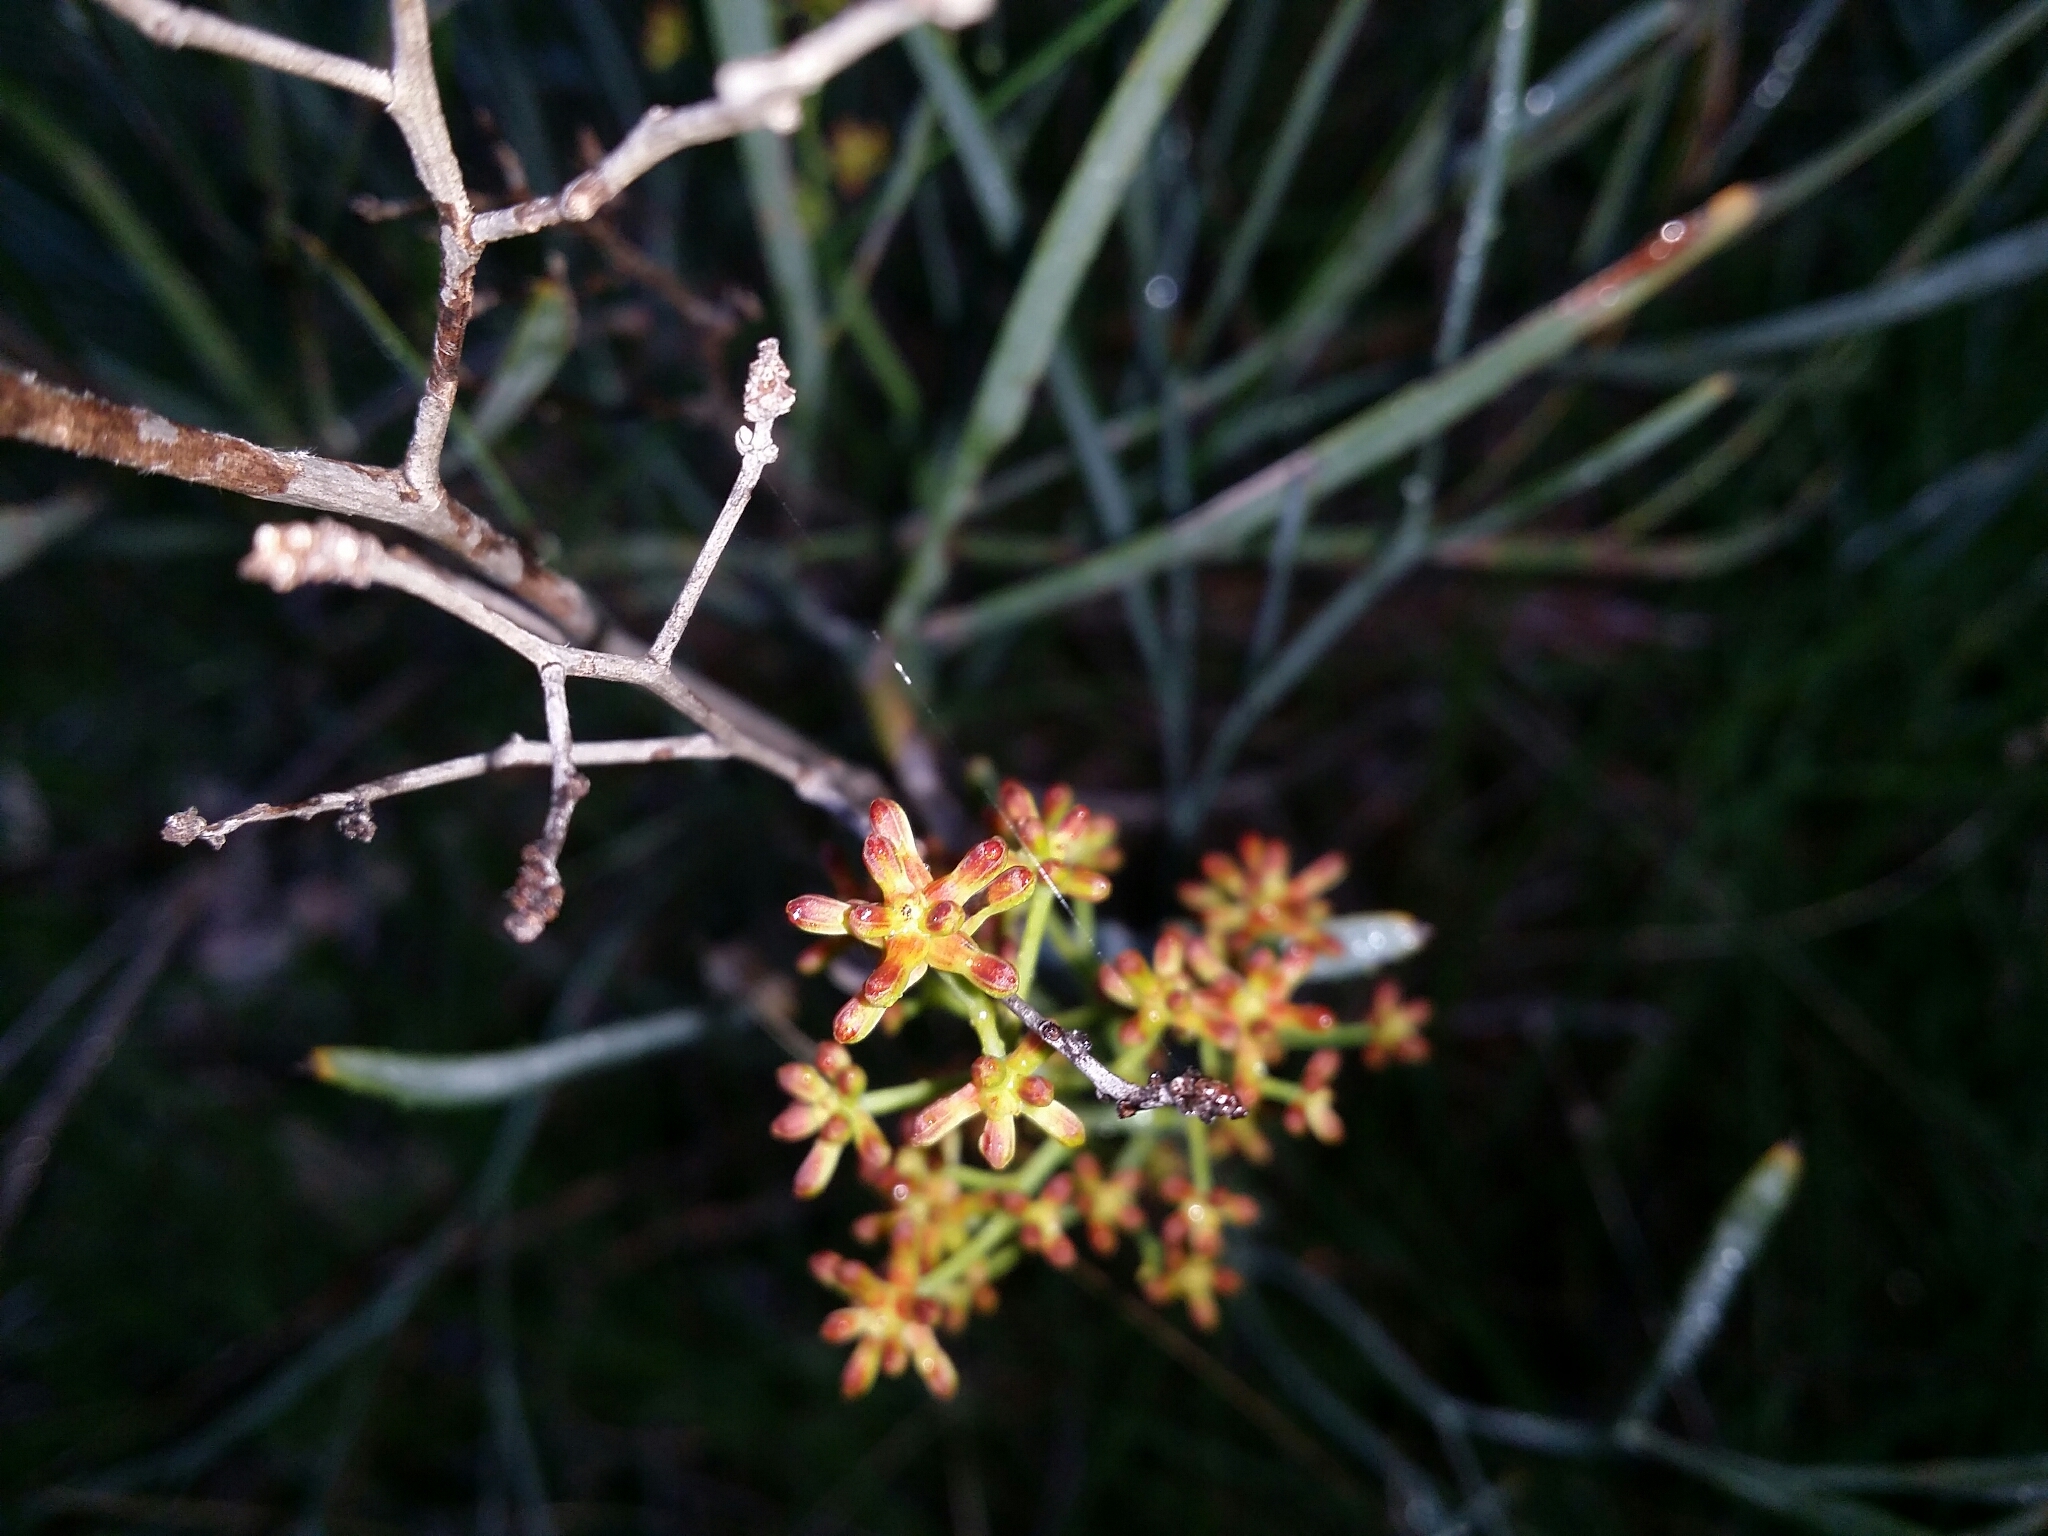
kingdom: Plantae
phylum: Tracheophyta
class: Magnoliopsida
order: Proteales
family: Proteaceae
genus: Stirlingia
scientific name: Stirlingia latifolia
